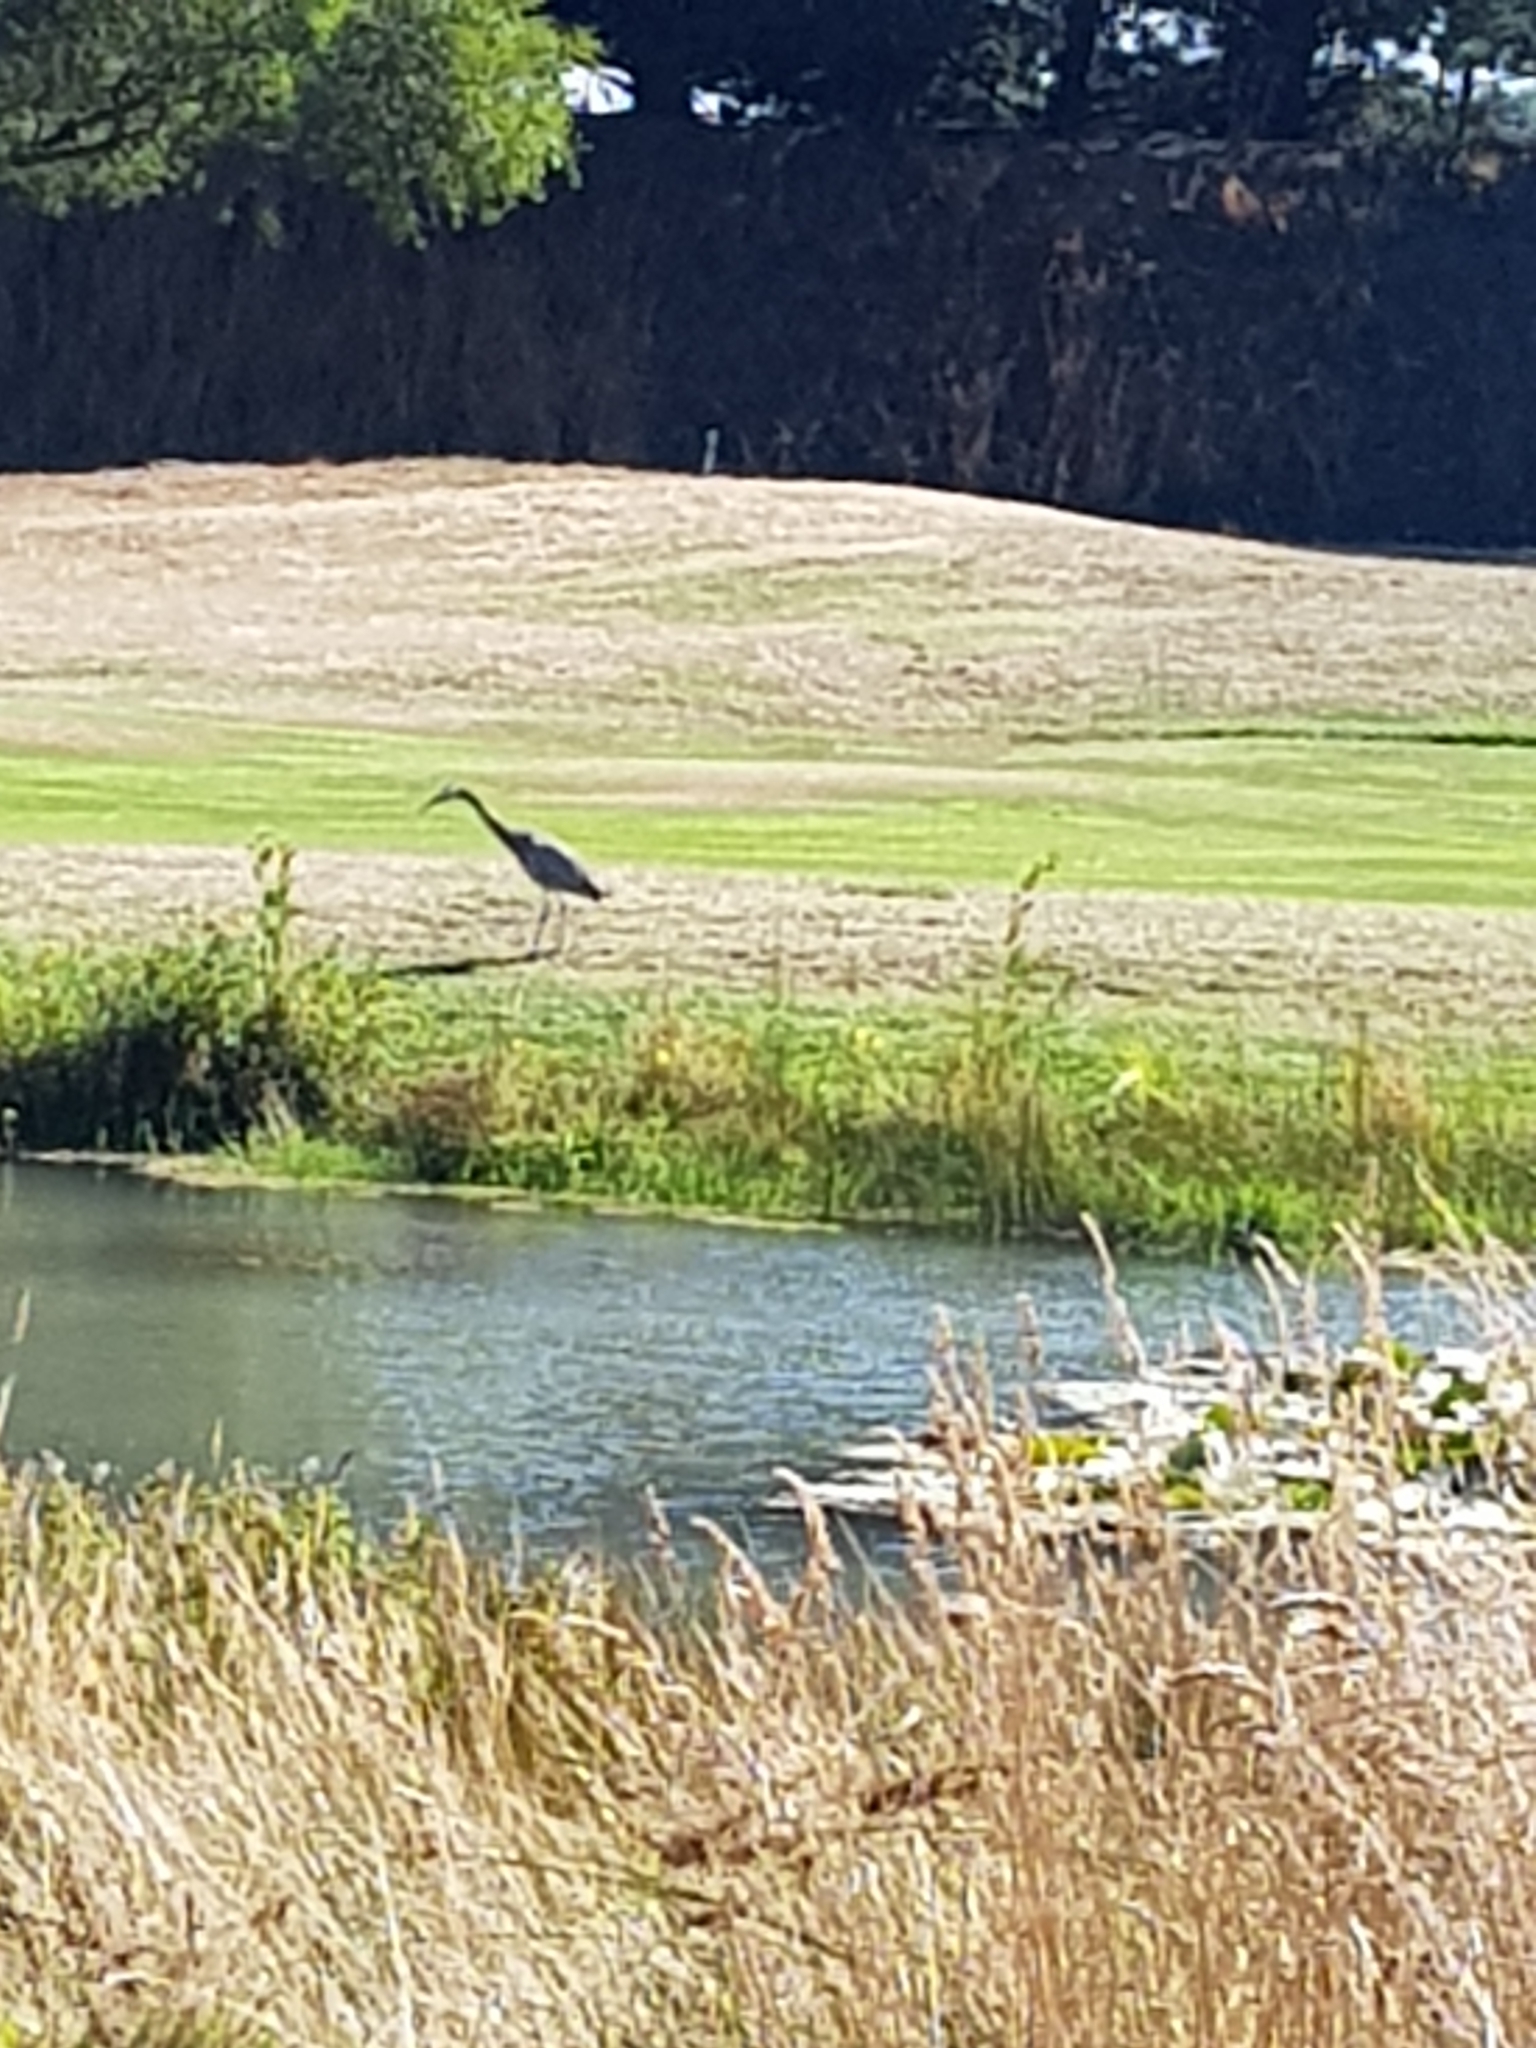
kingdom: Animalia
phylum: Chordata
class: Aves
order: Pelecaniformes
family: Ardeidae
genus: Egretta
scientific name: Egretta novaehollandiae
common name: White-faced heron
